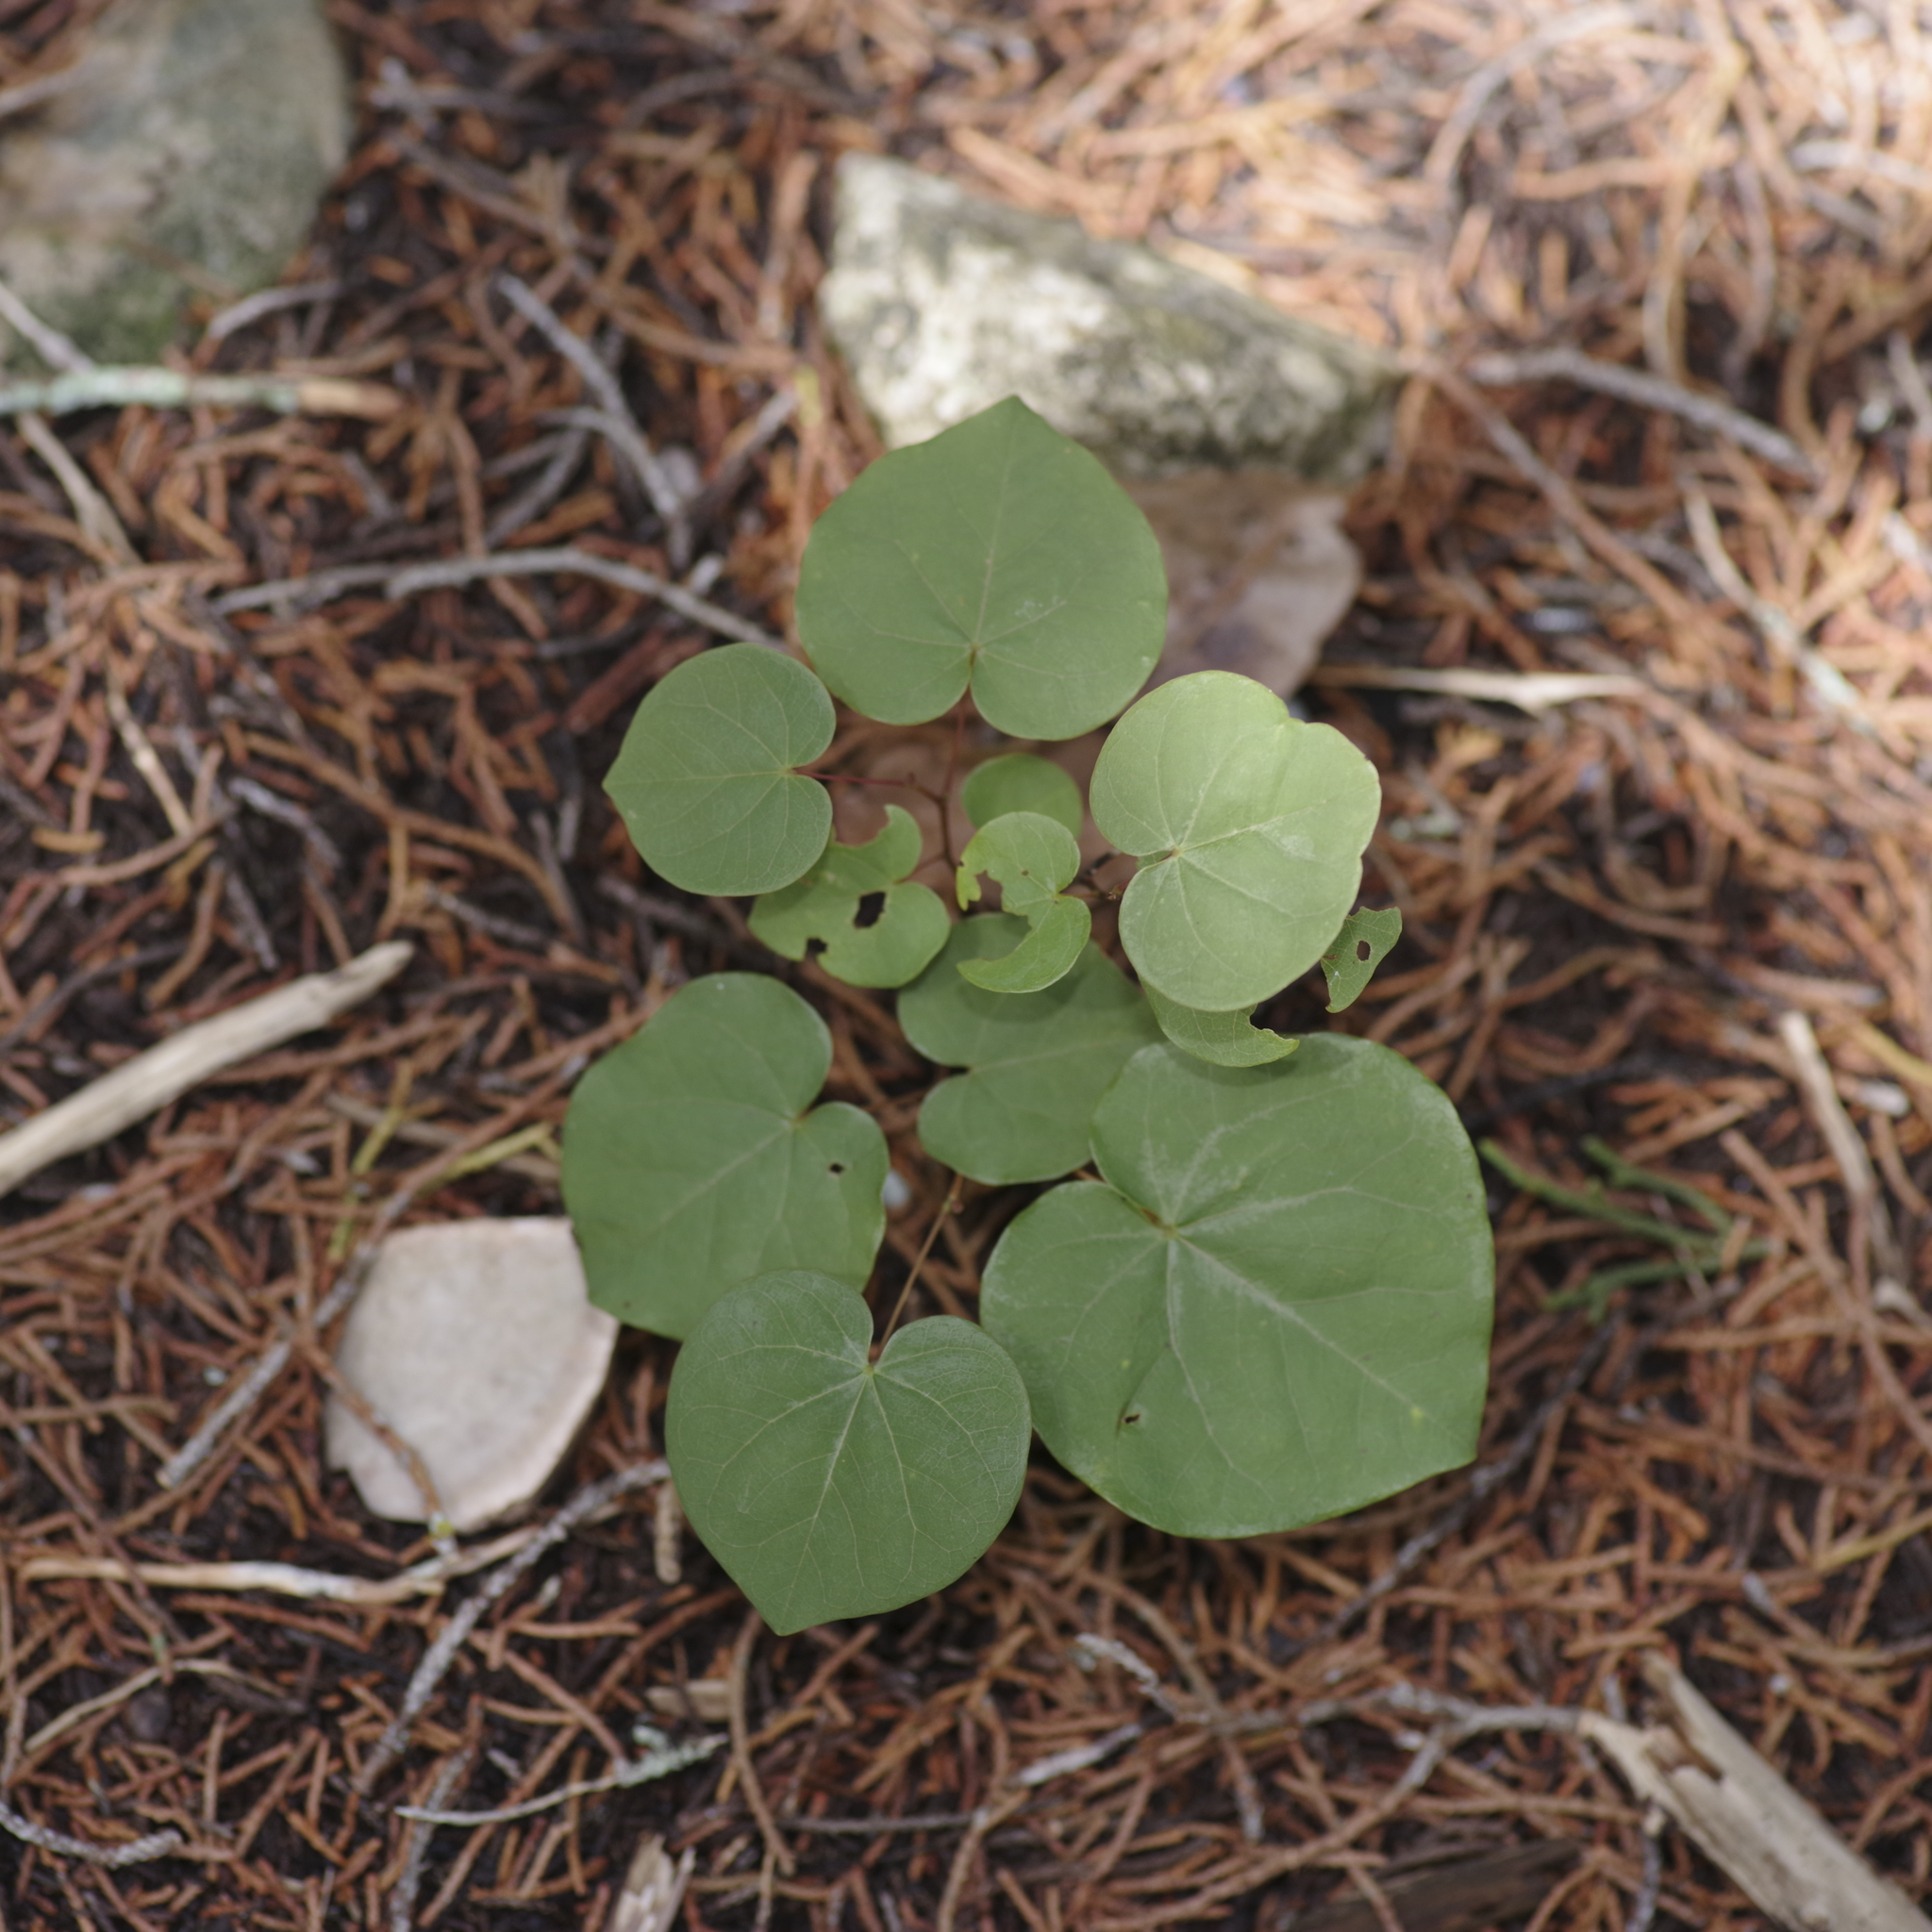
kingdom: Plantae
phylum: Tracheophyta
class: Magnoliopsida
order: Fabales
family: Fabaceae
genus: Cercis
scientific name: Cercis canadensis
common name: Eastern redbud
